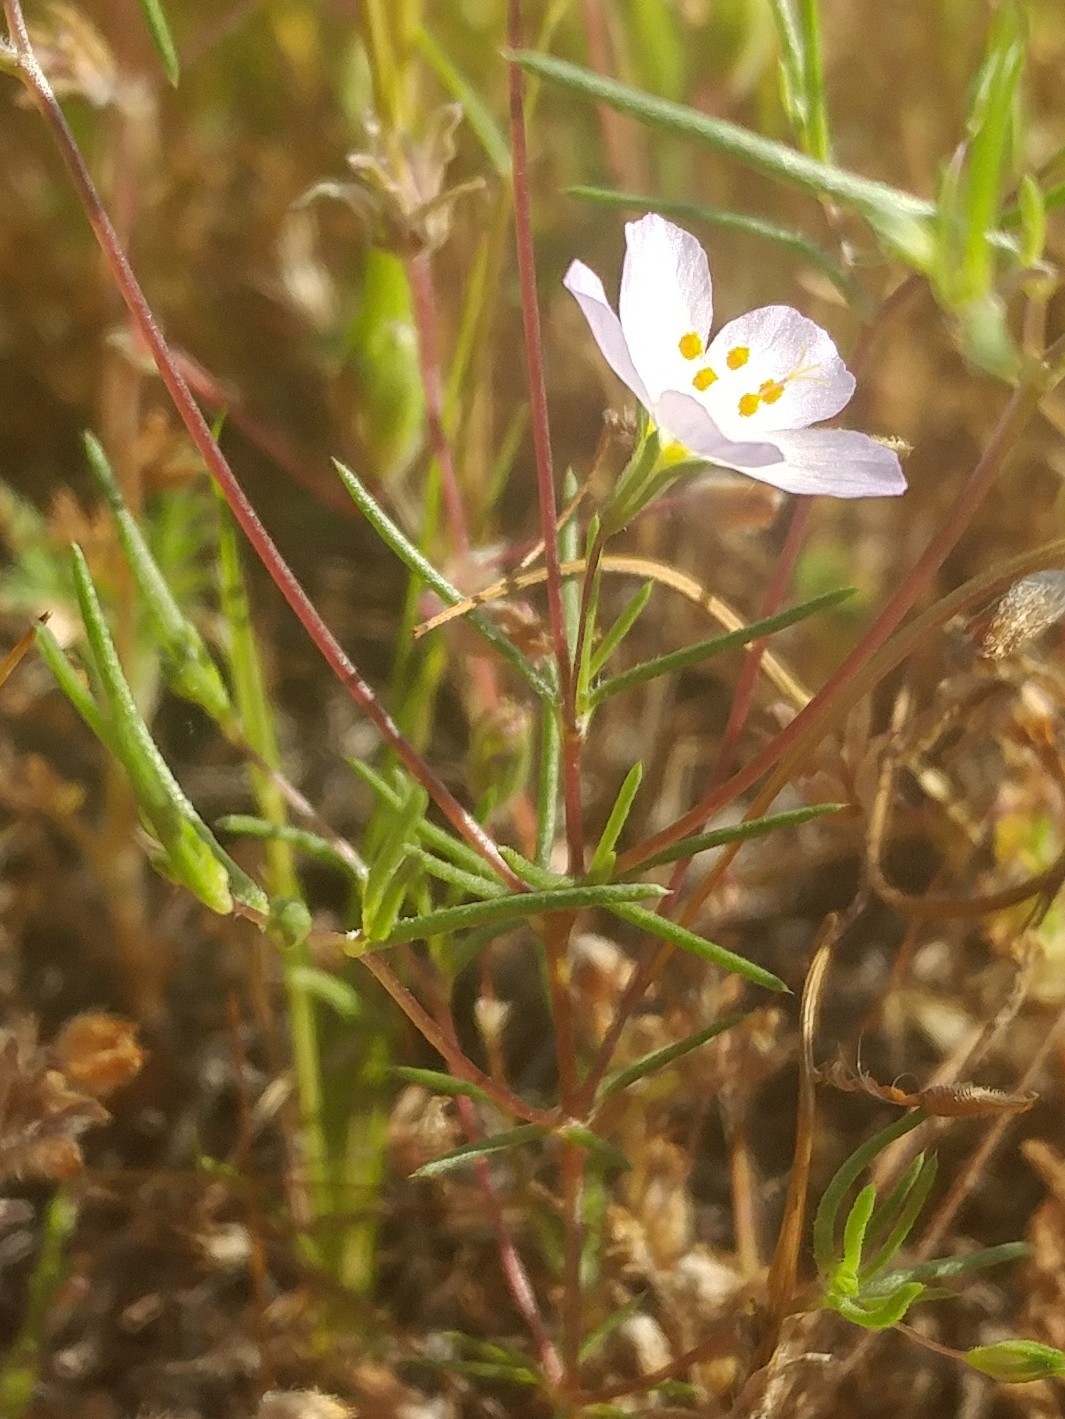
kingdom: Plantae
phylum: Tracheophyta
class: Magnoliopsida
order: Ericales
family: Polemoniaceae
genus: Leptosiphon
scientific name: Leptosiphon liniflorus
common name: Narrowflower flaxflower
